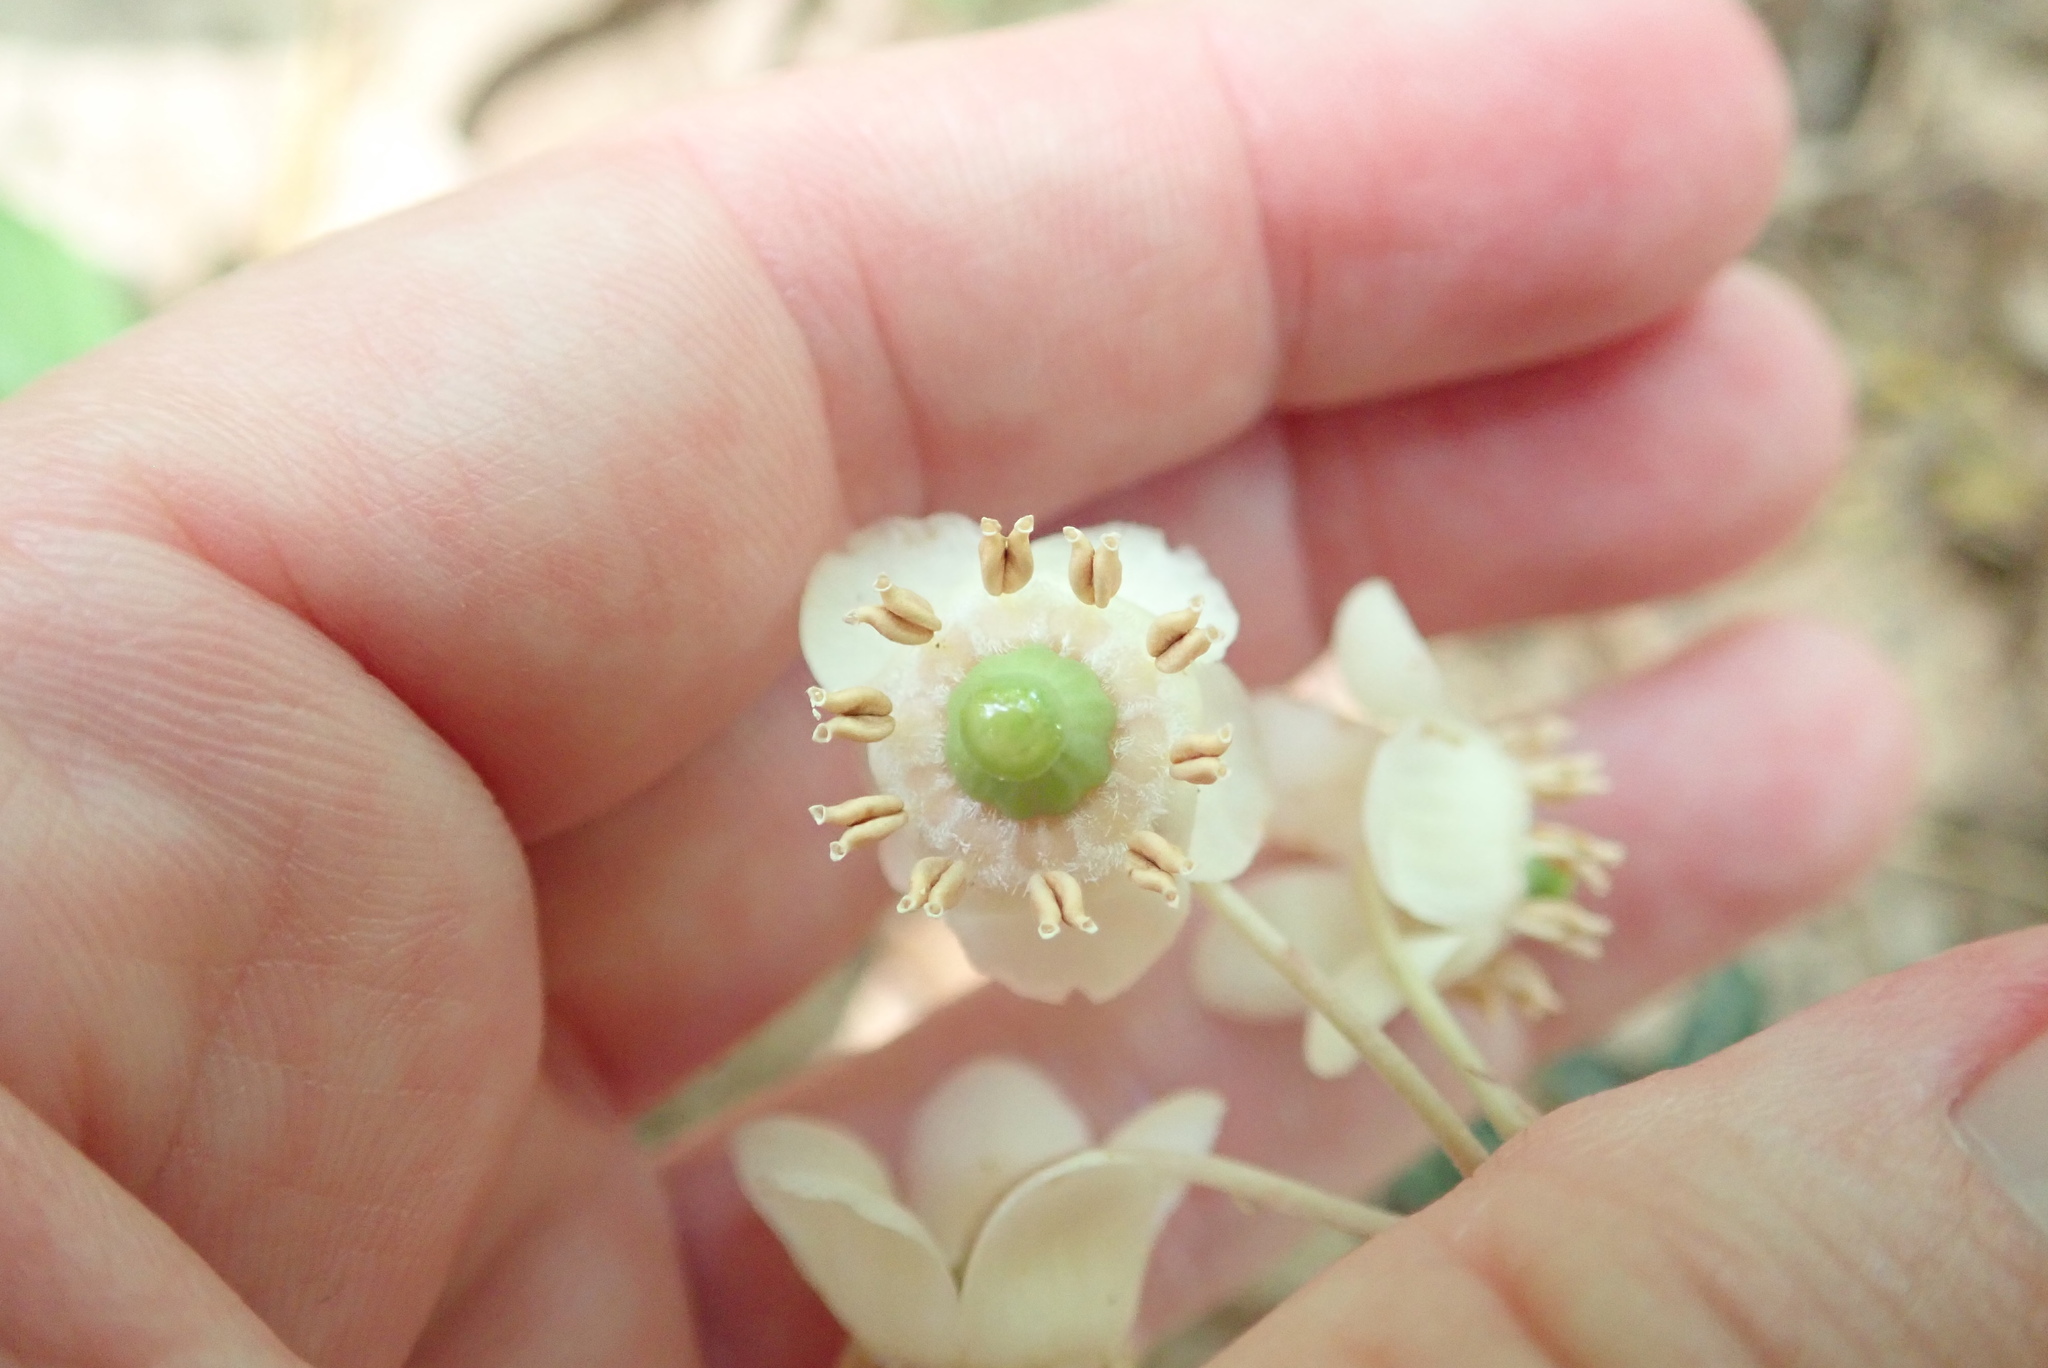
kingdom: Plantae
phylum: Tracheophyta
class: Magnoliopsida
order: Ericales
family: Ericaceae
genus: Chimaphila
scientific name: Chimaphila maculata
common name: Spotted pipsissewa
